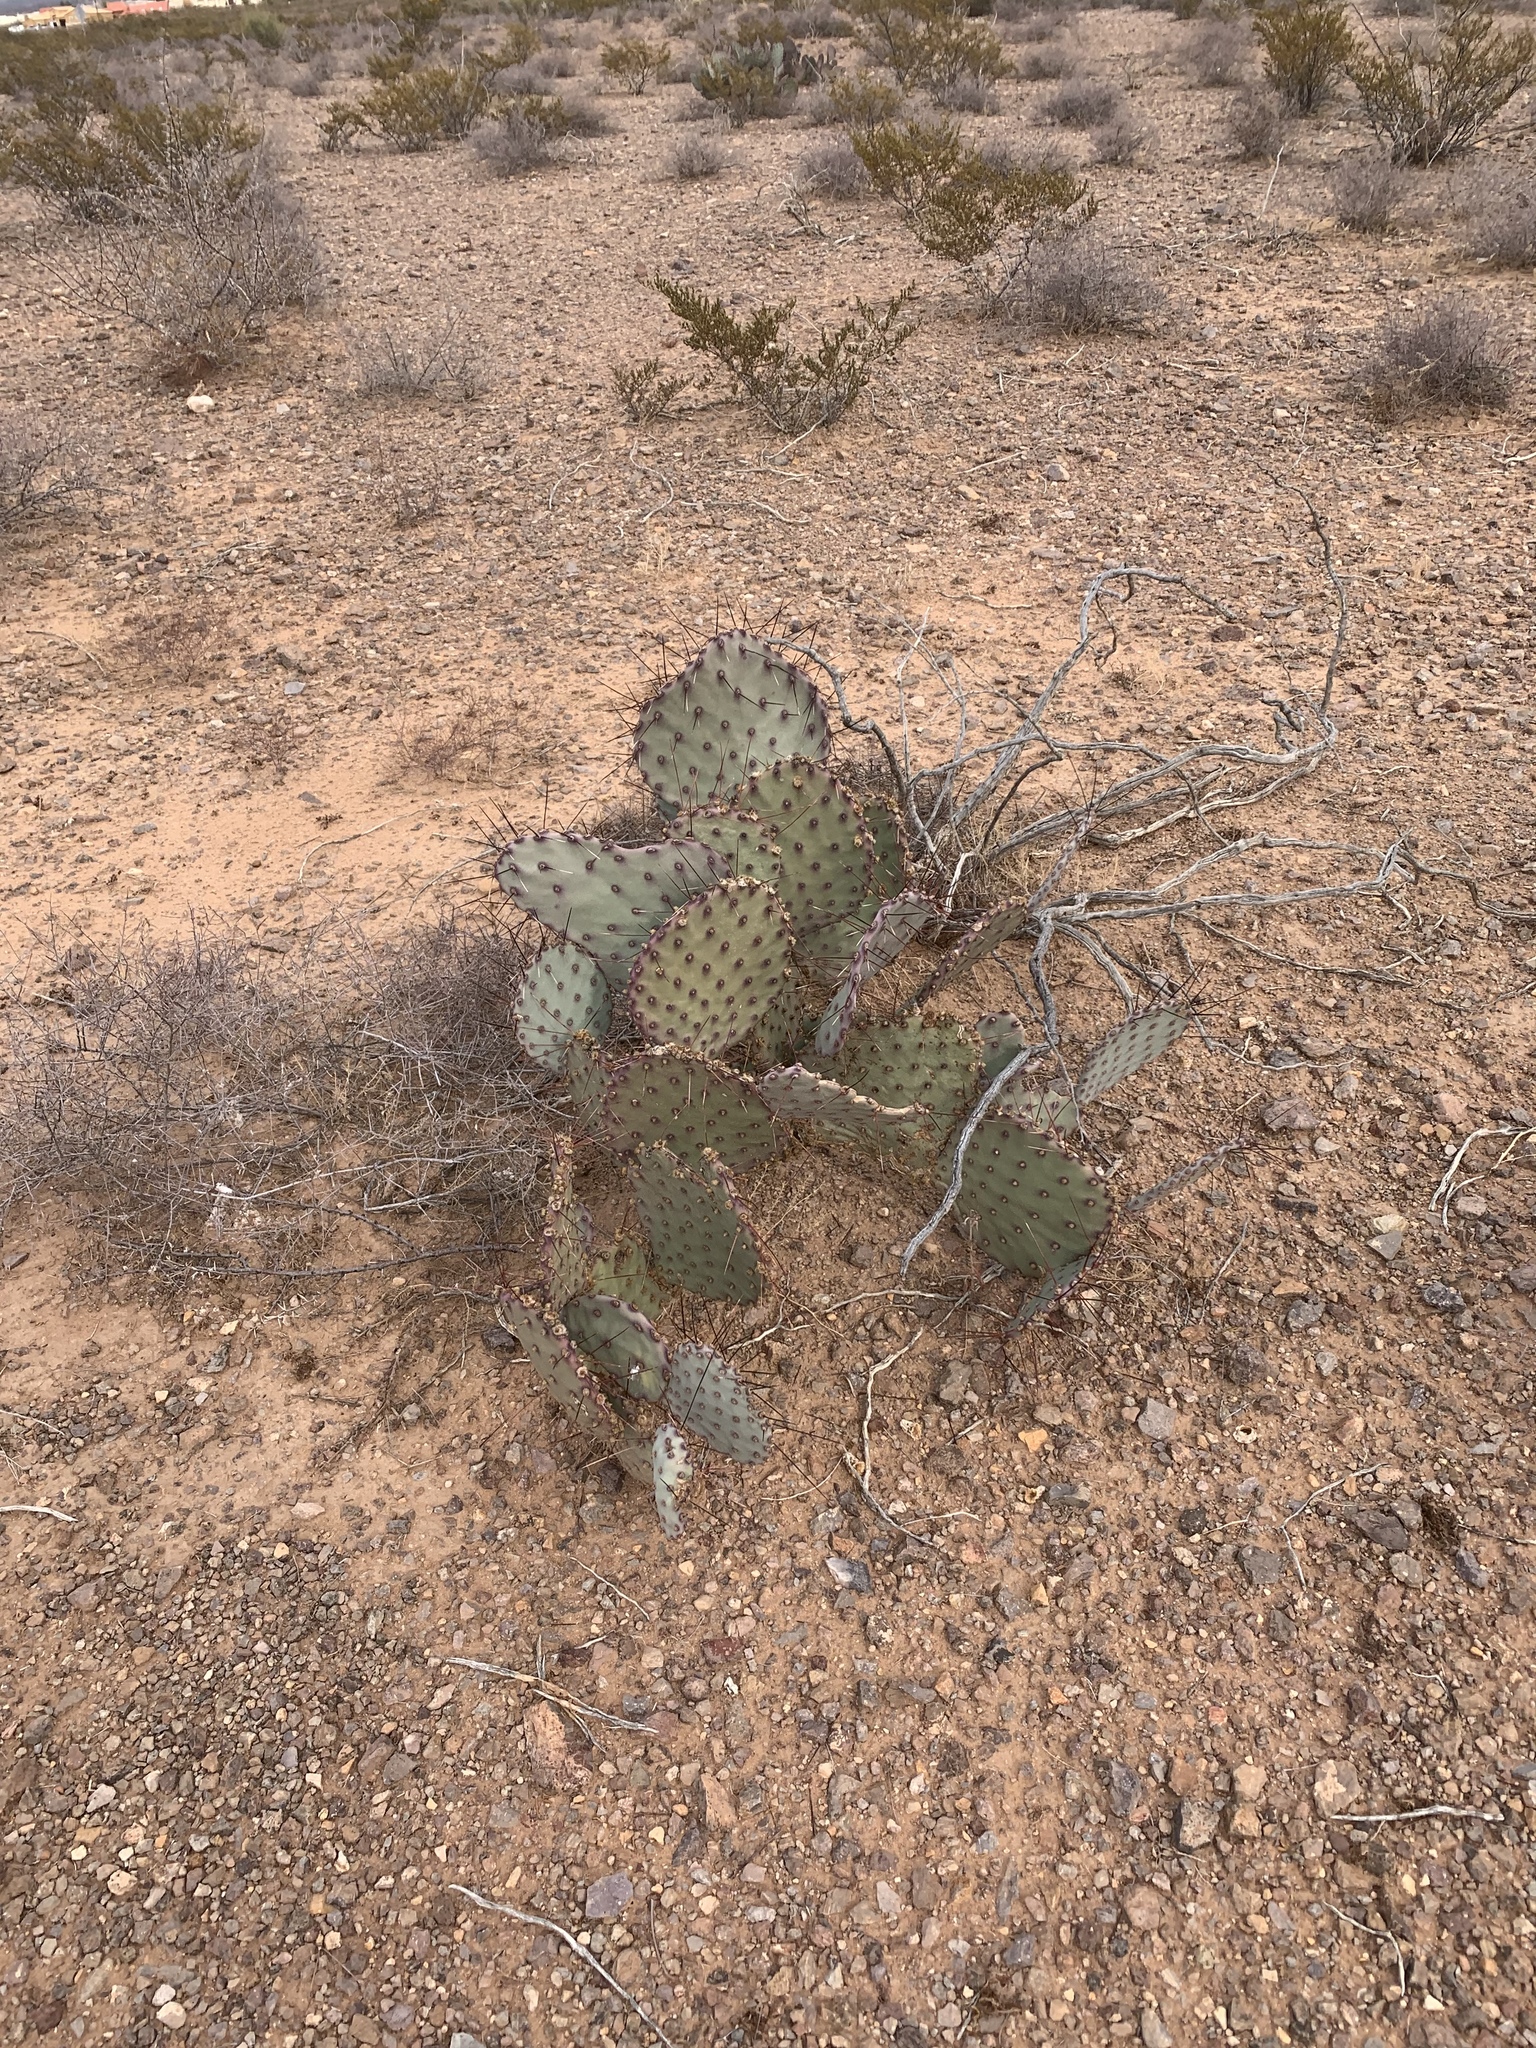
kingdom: Plantae
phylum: Tracheophyta
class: Magnoliopsida
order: Caryophyllales
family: Cactaceae
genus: Opuntia
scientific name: Opuntia macrocentra
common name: Purple prickly-pear
